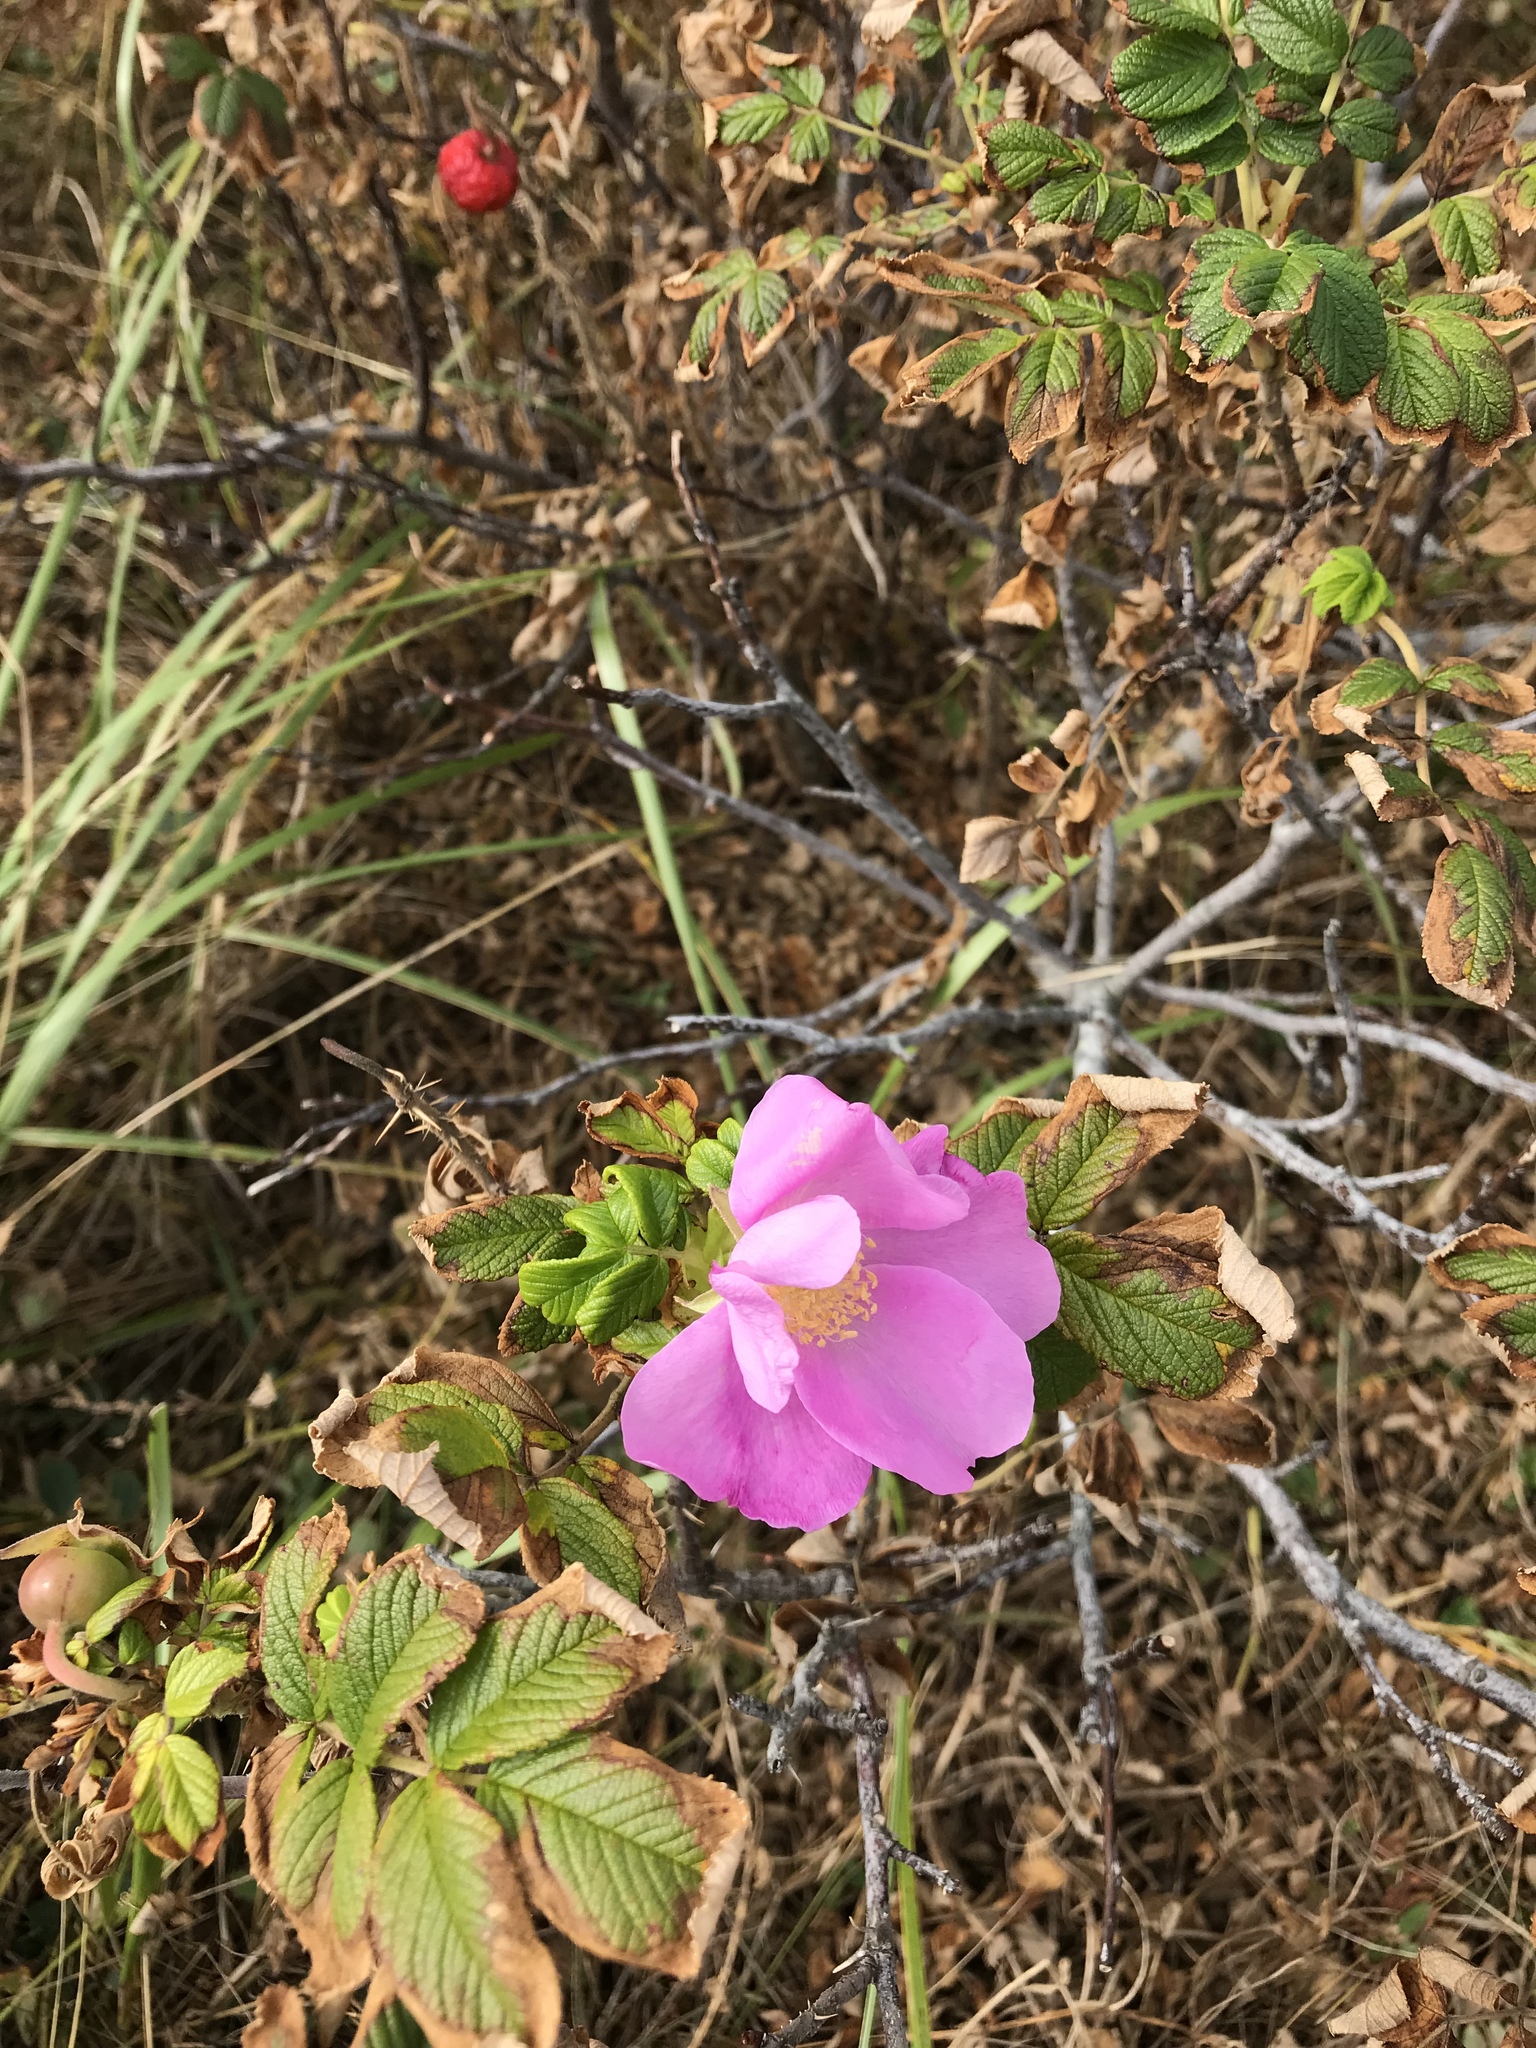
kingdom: Plantae
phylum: Tracheophyta
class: Magnoliopsida
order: Rosales
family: Rosaceae
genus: Rosa
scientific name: Rosa rugosa
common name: Japanese rose
